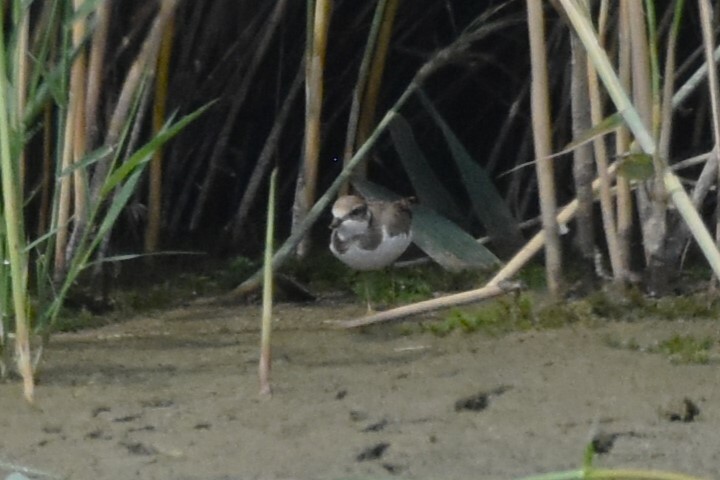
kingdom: Animalia
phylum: Chordata
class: Aves
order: Charadriiformes
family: Charadriidae
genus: Charadrius
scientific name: Charadrius hiaticula
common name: Common ringed plover
